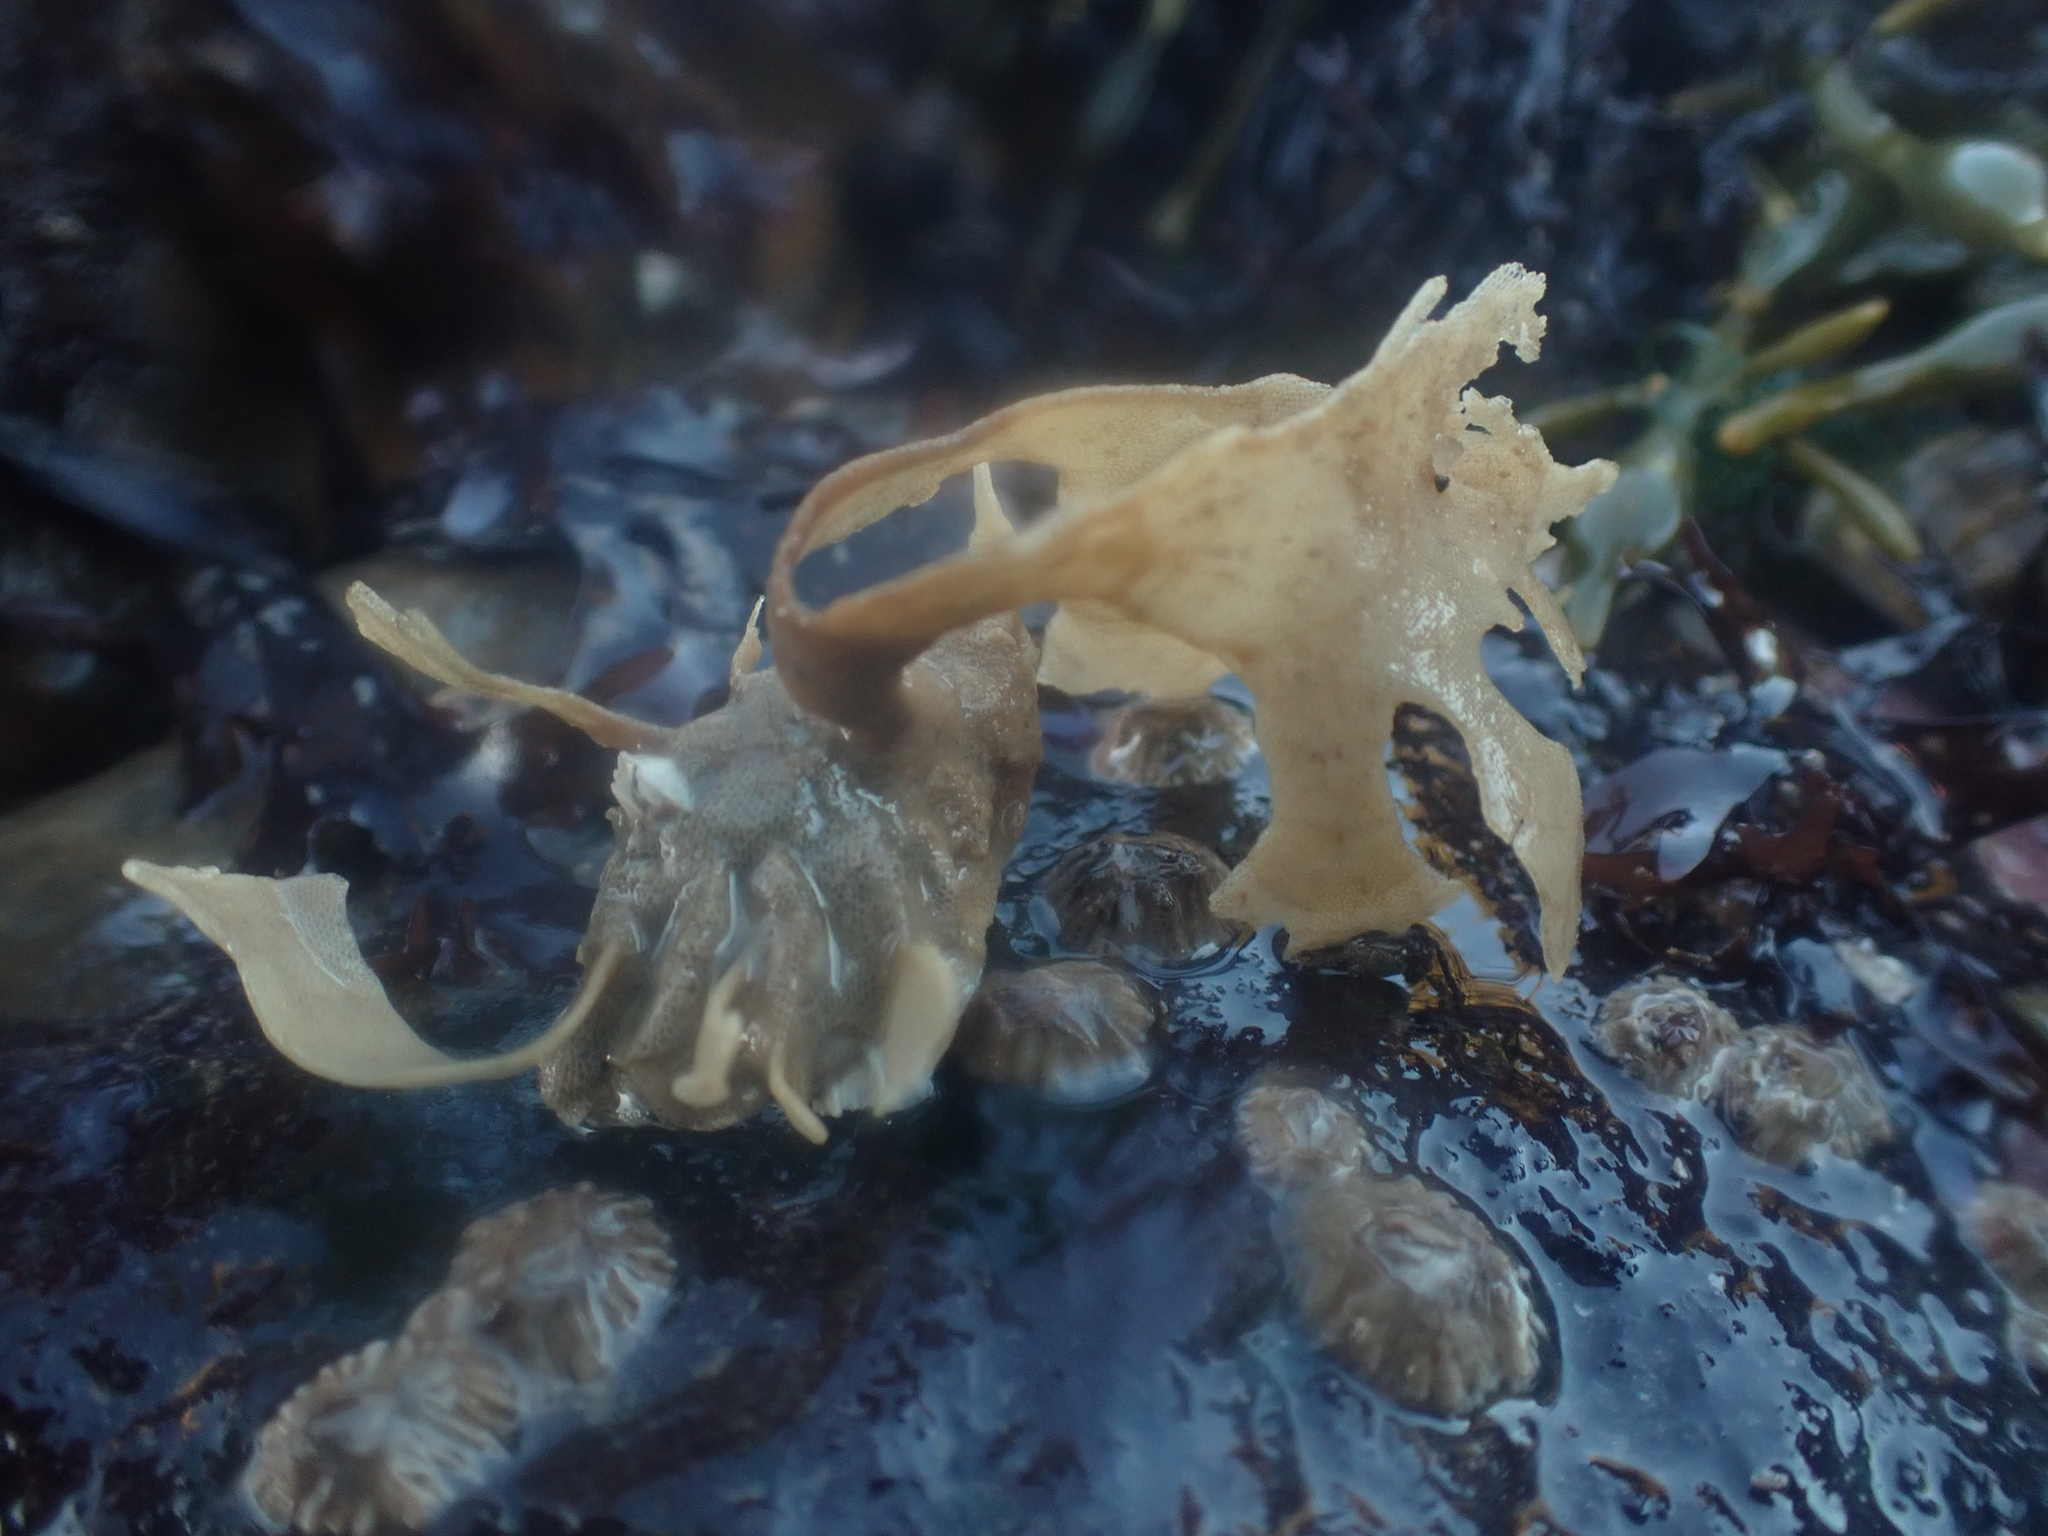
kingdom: Animalia
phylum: Bryozoa
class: Gymnolaemata
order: Cheilostomatida
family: Flustridae
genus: Flustra
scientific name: Flustra foliacea
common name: Hornwrack
